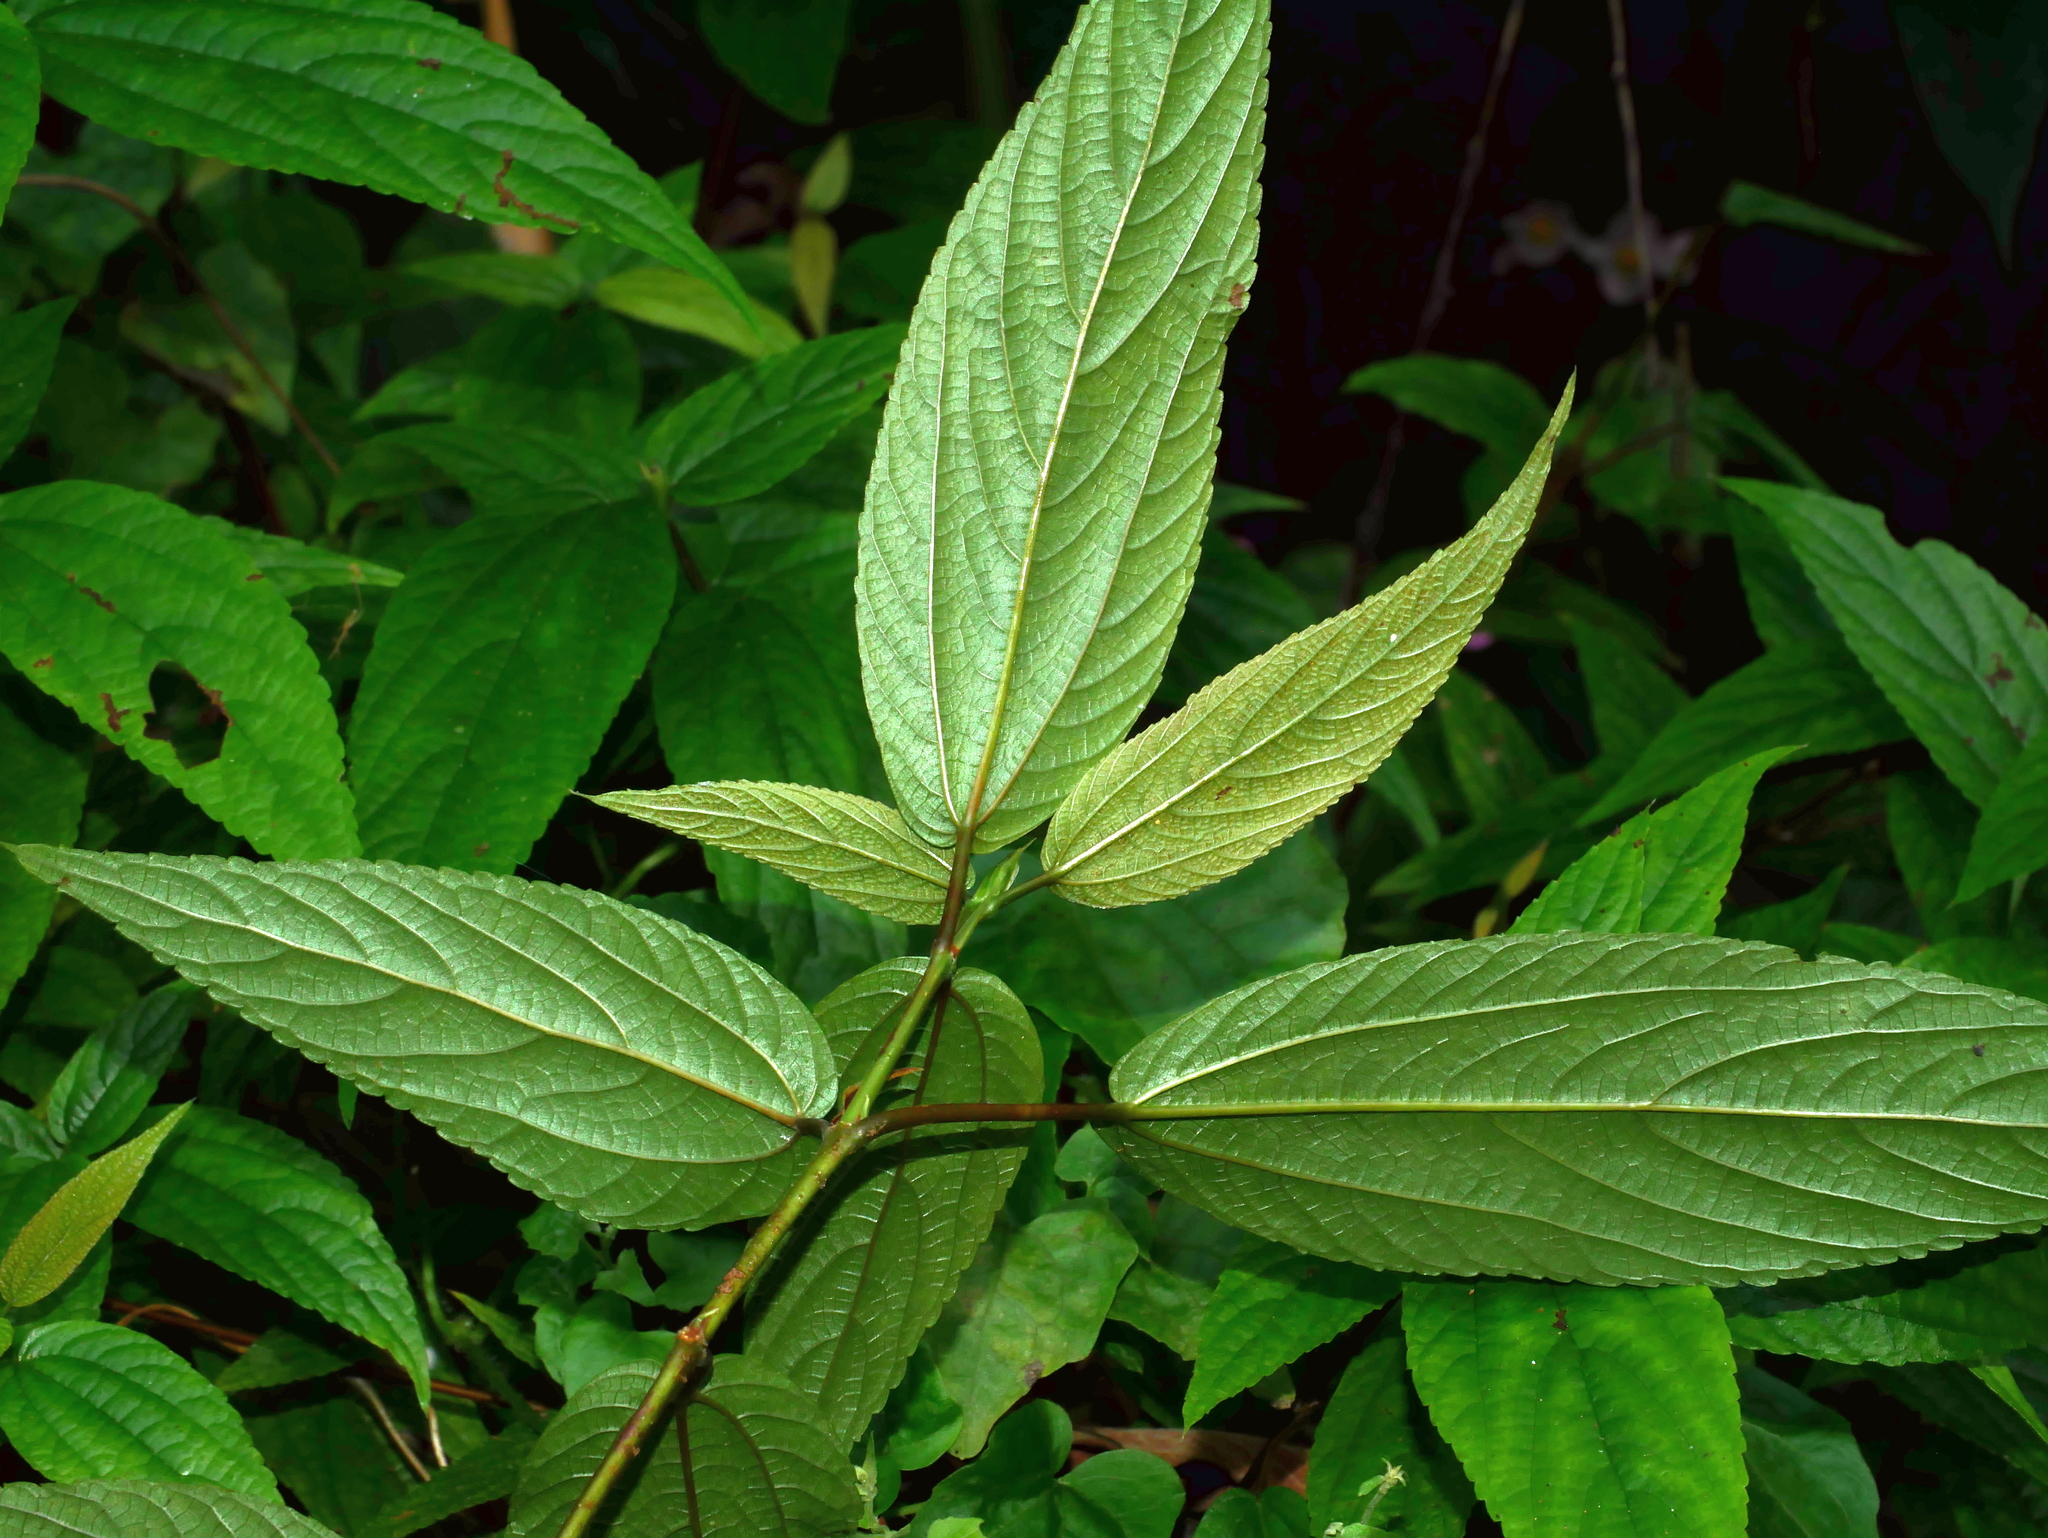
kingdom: Plantae
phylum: Tracheophyta
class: Magnoliopsida
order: Rosales
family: Urticaceae
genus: Boehmeria
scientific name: Boehmeria zollingeriana
